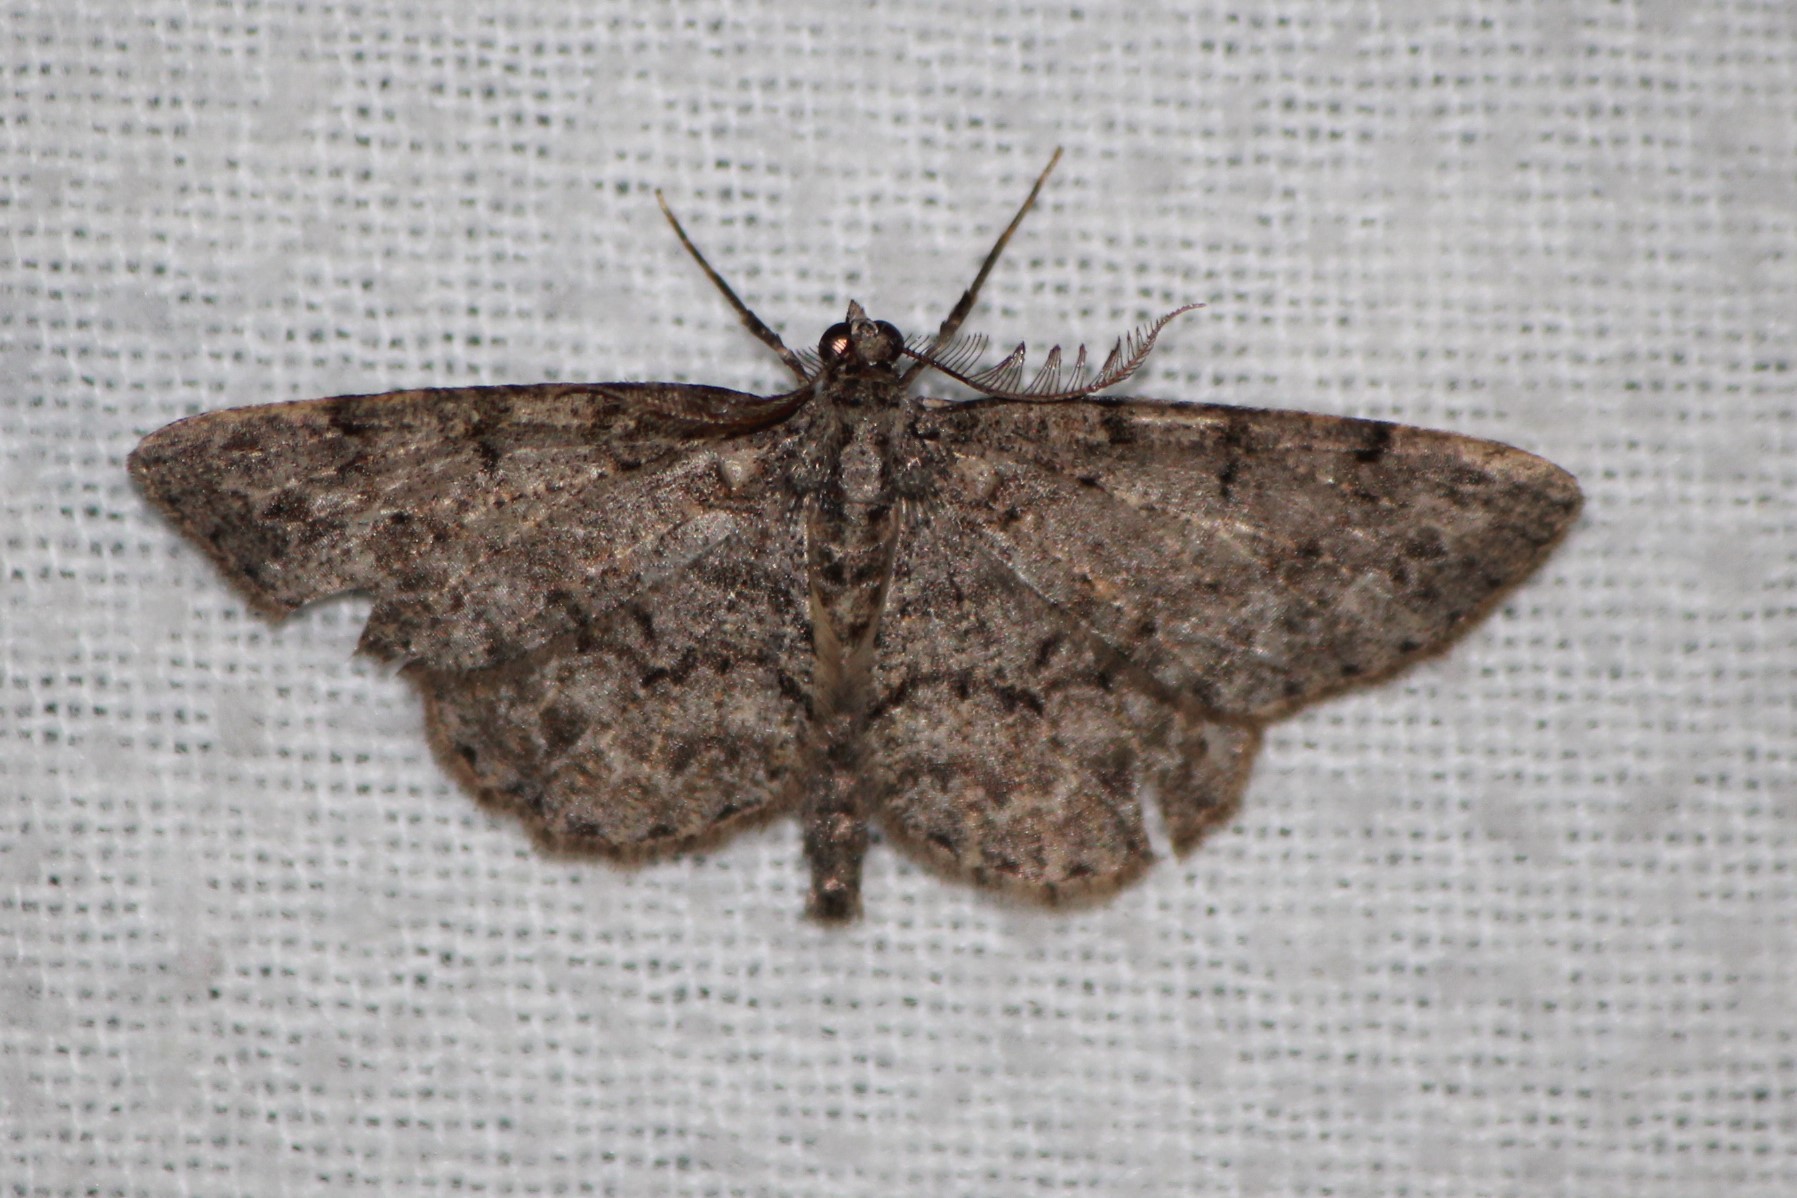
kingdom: Animalia
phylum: Arthropoda
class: Insecta
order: Lepidoptera
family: Geometridae
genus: Protoboarmia
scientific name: Protoboarmia porcelaria
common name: Porcelain gray
